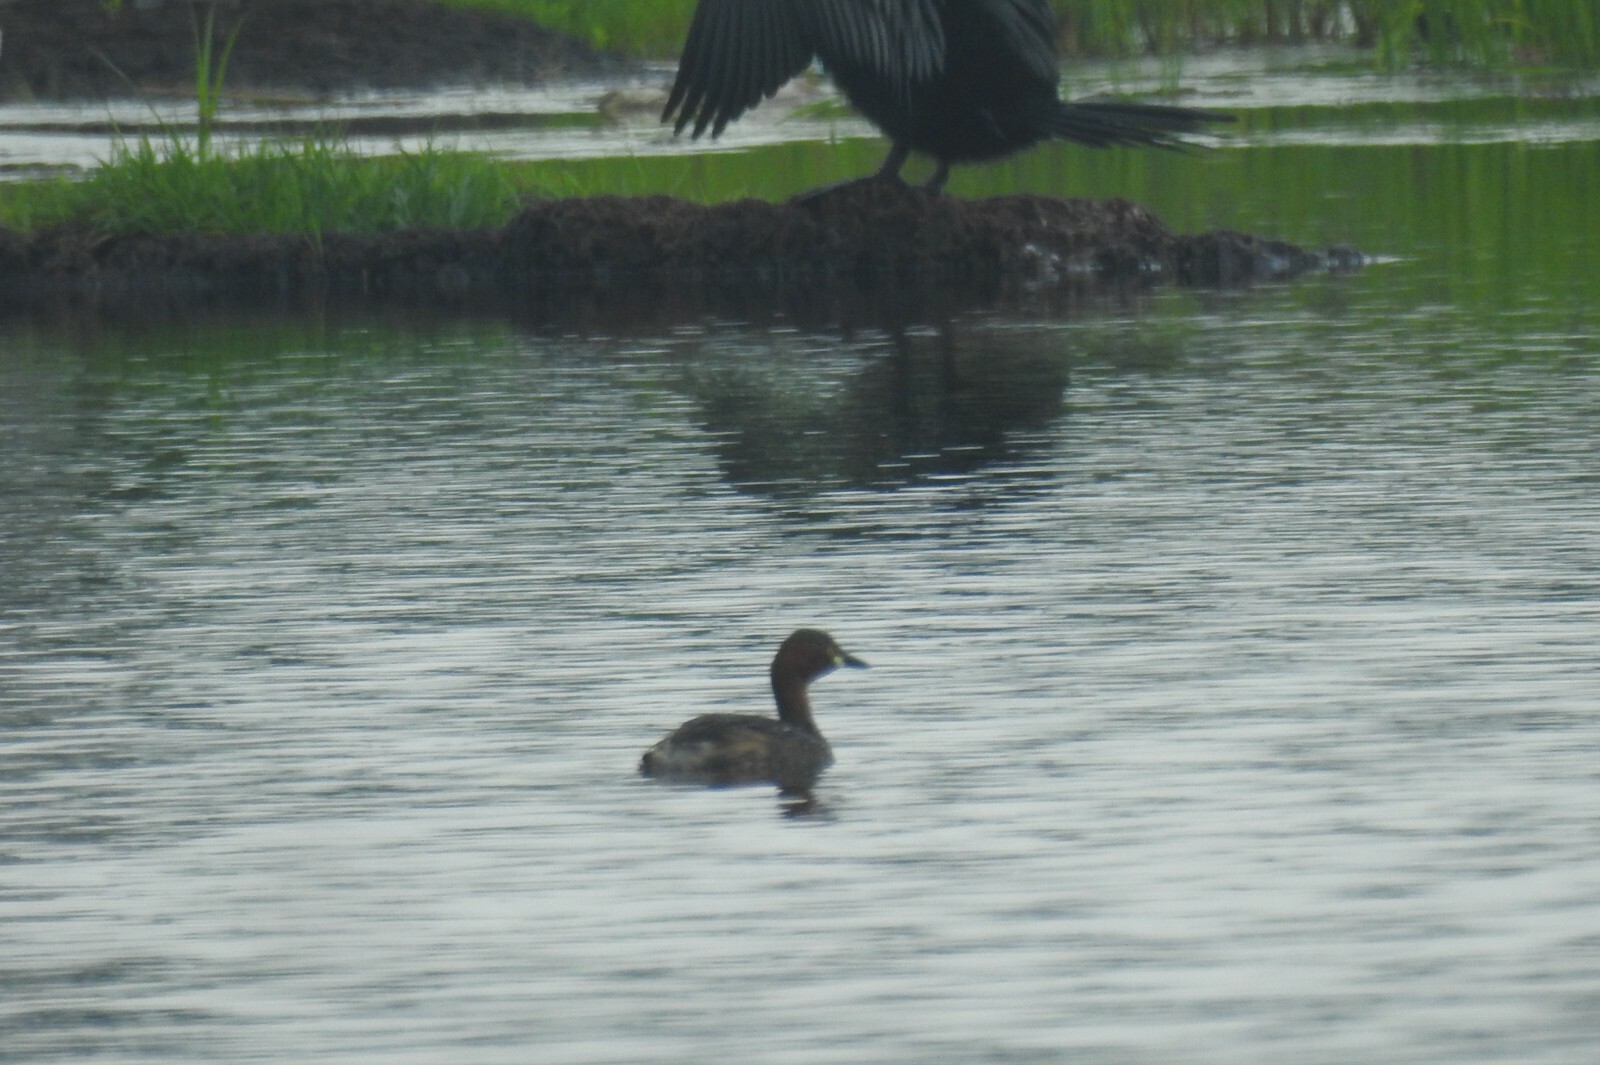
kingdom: Animalia
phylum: Chordata
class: Aves
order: Podicipediformes
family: Podicipedidae
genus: Tachybaptus
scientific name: Tachybaptus ruficollis
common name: Little grebe
